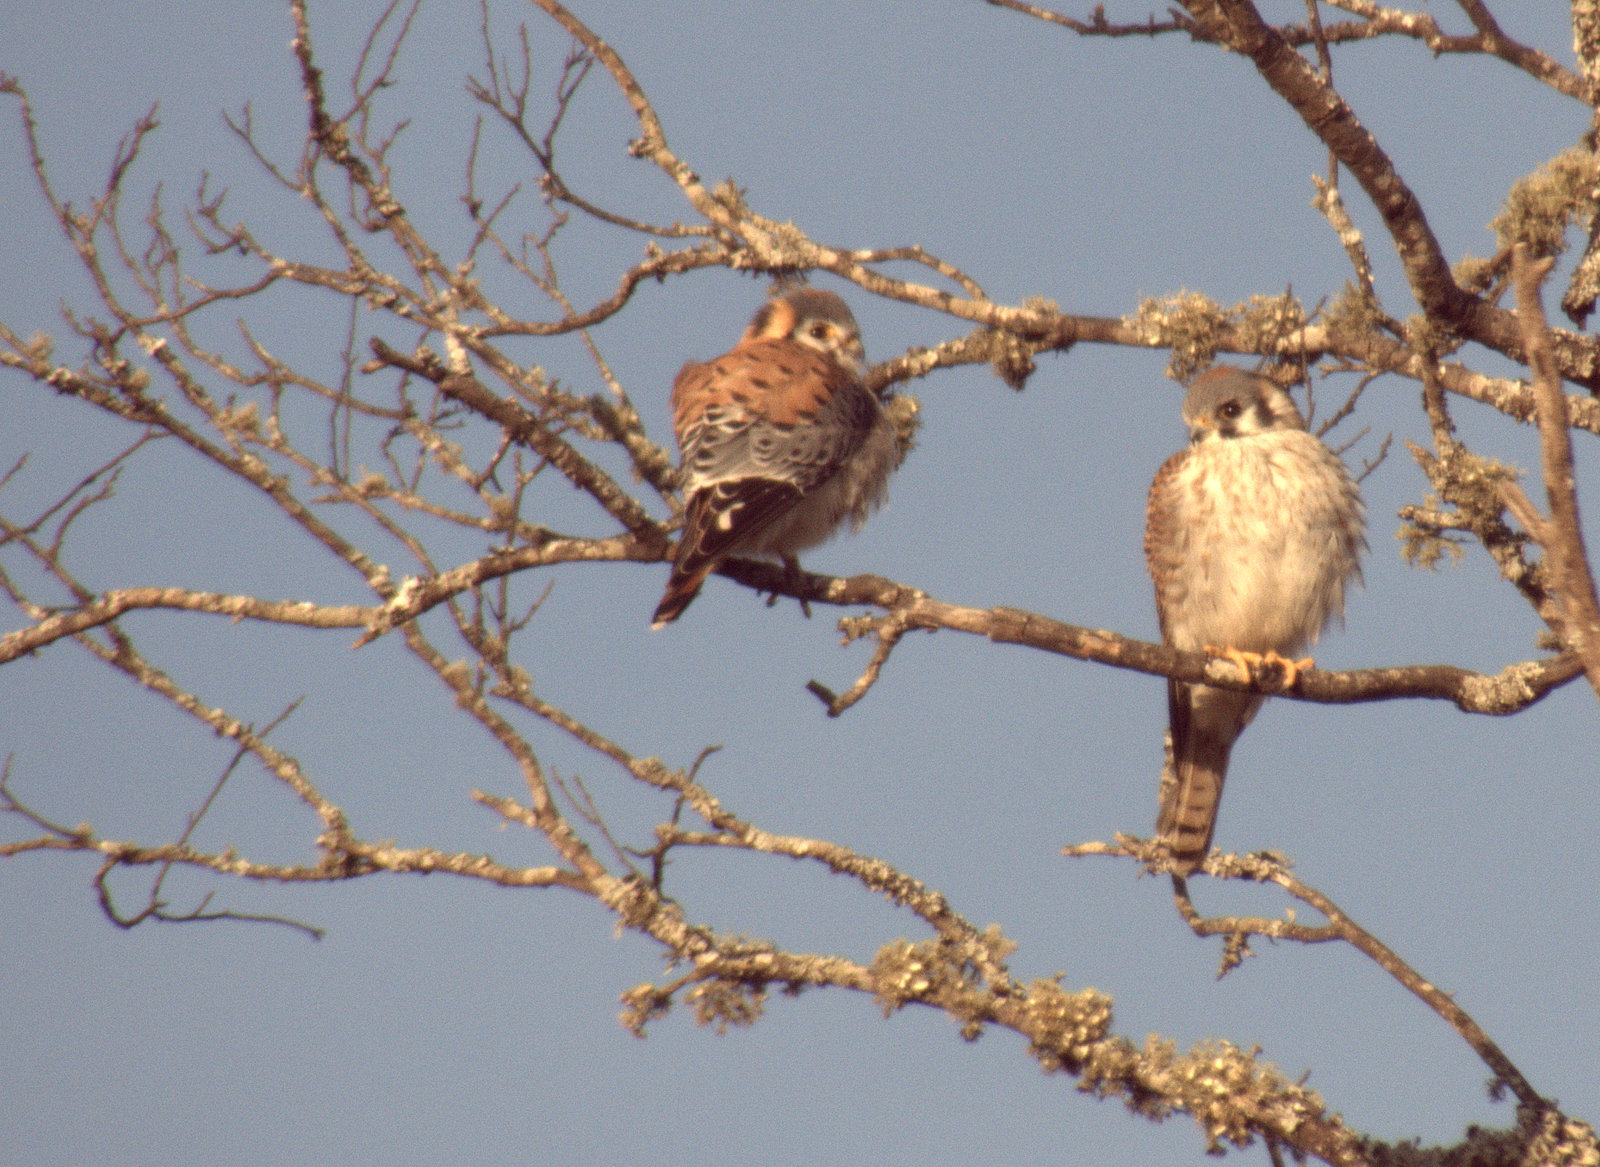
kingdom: Animalia
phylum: Chordata
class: Aves
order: Falconiformes
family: Falconidae
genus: Falco
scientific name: Falco sparverius
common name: American kestrel
